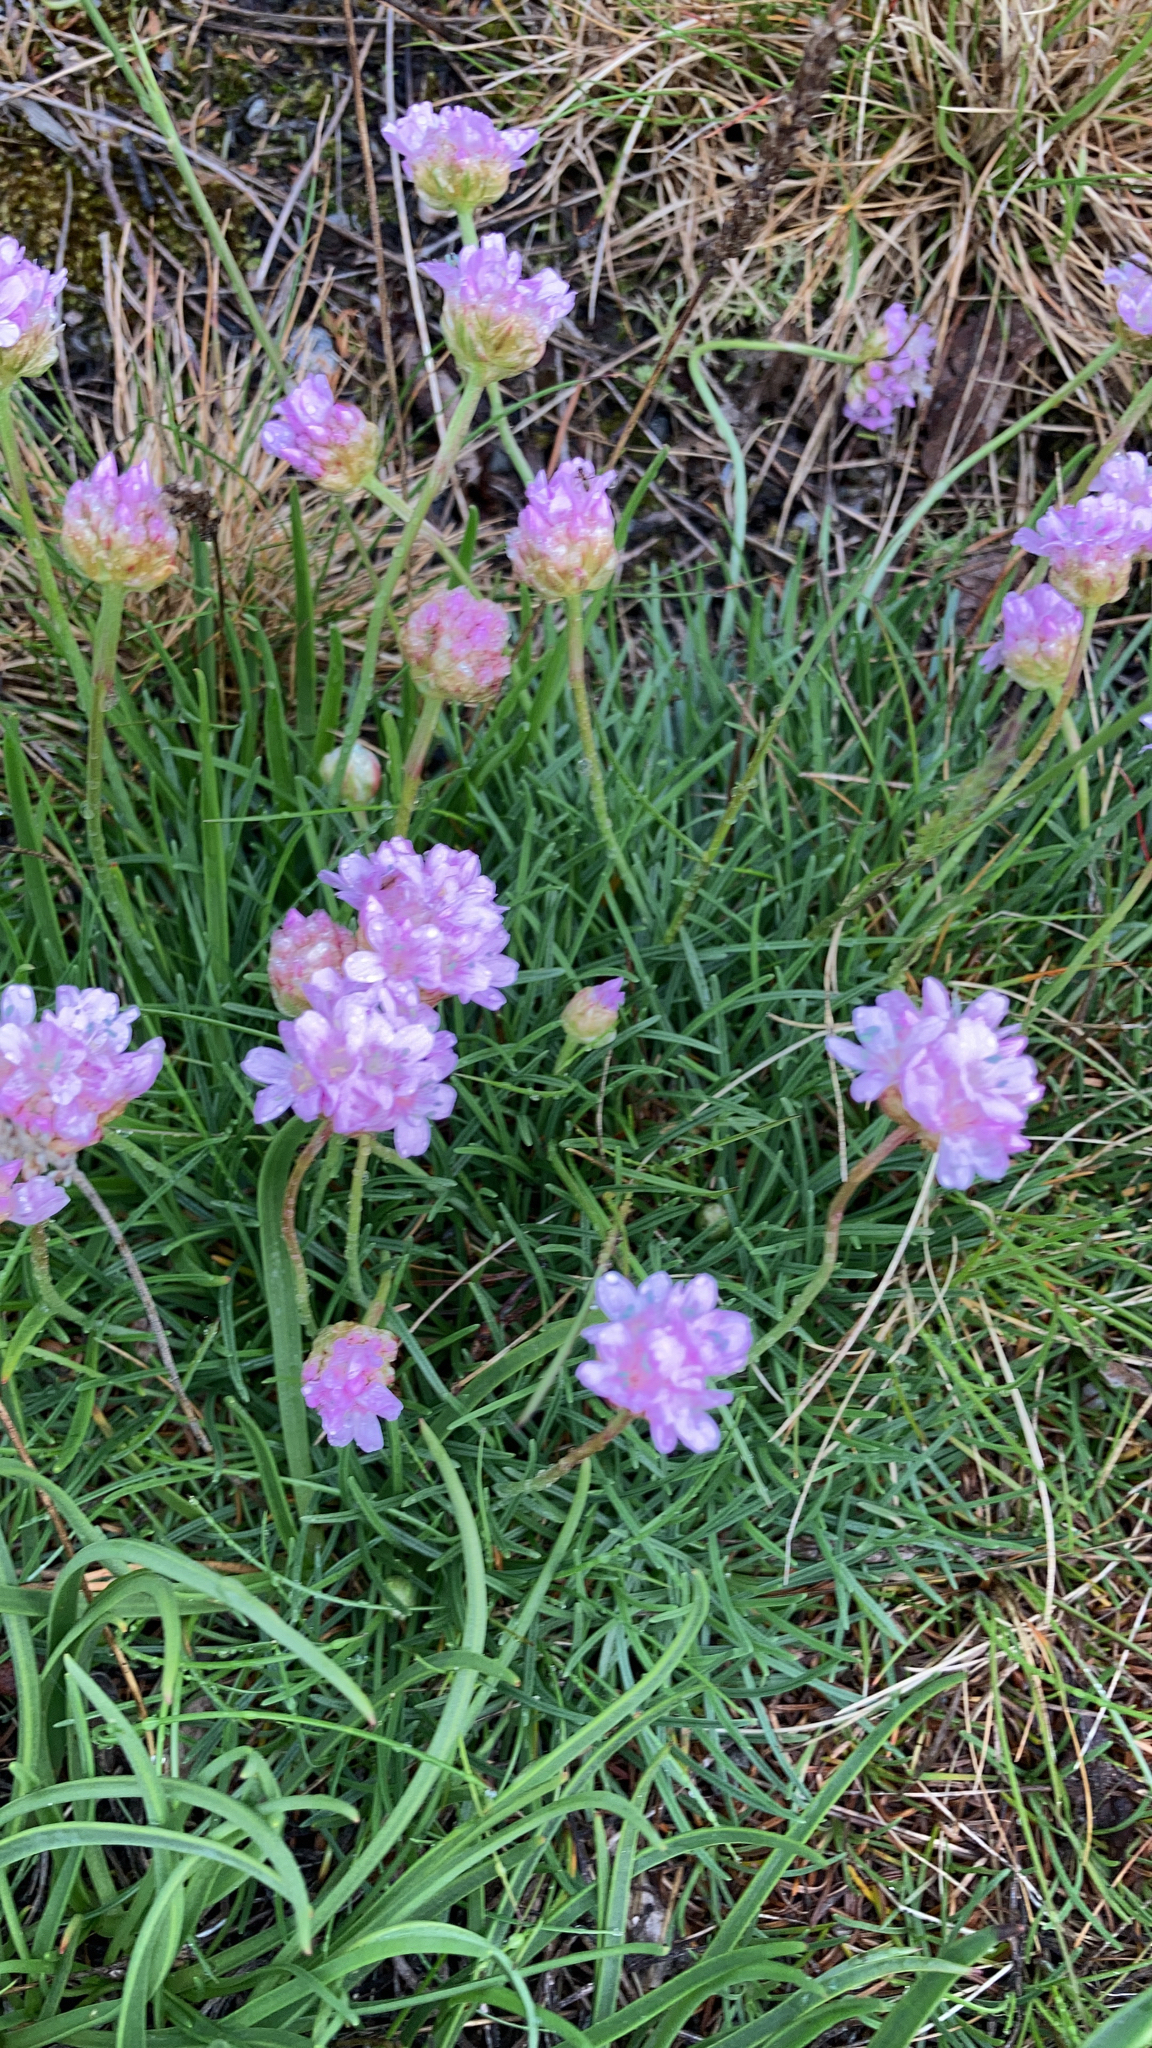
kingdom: Plantae
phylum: Tracheophyta
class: Magnoliopsida
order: Caryophyllales
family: Plumbaginaceae
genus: Armeria
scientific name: Armeria maritima
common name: Thrift
